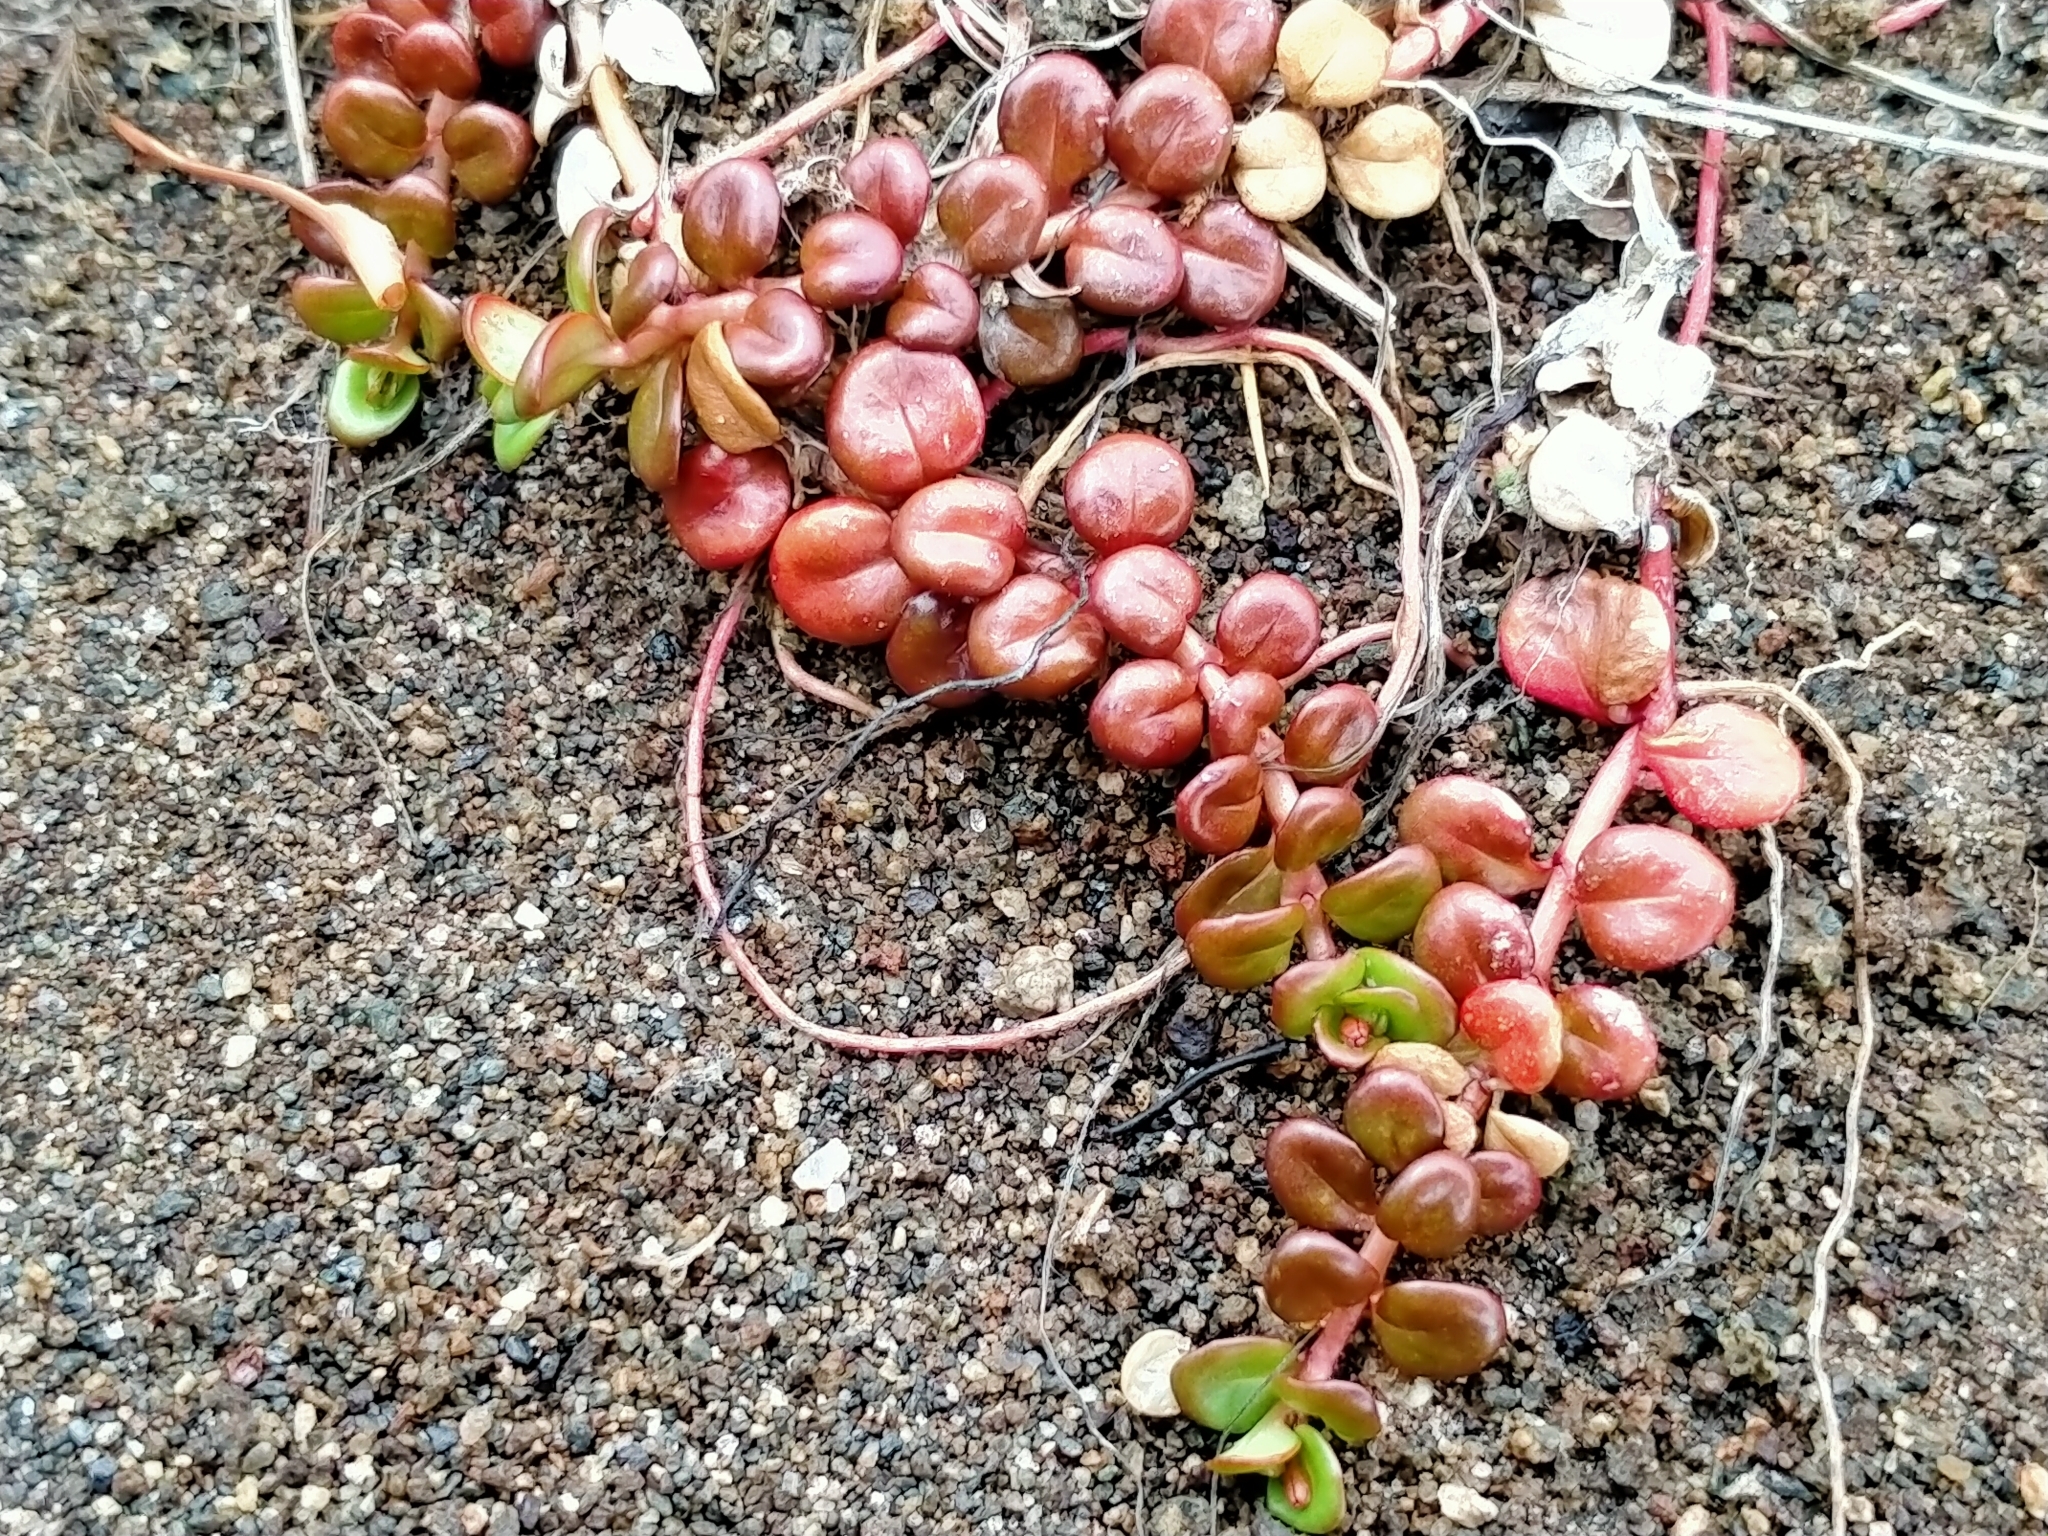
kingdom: Plantae
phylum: Tracheophyta
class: Magnoliopsida
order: Myrtales
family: Onagraceae
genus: Epilobium
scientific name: Epilobium pernitens
